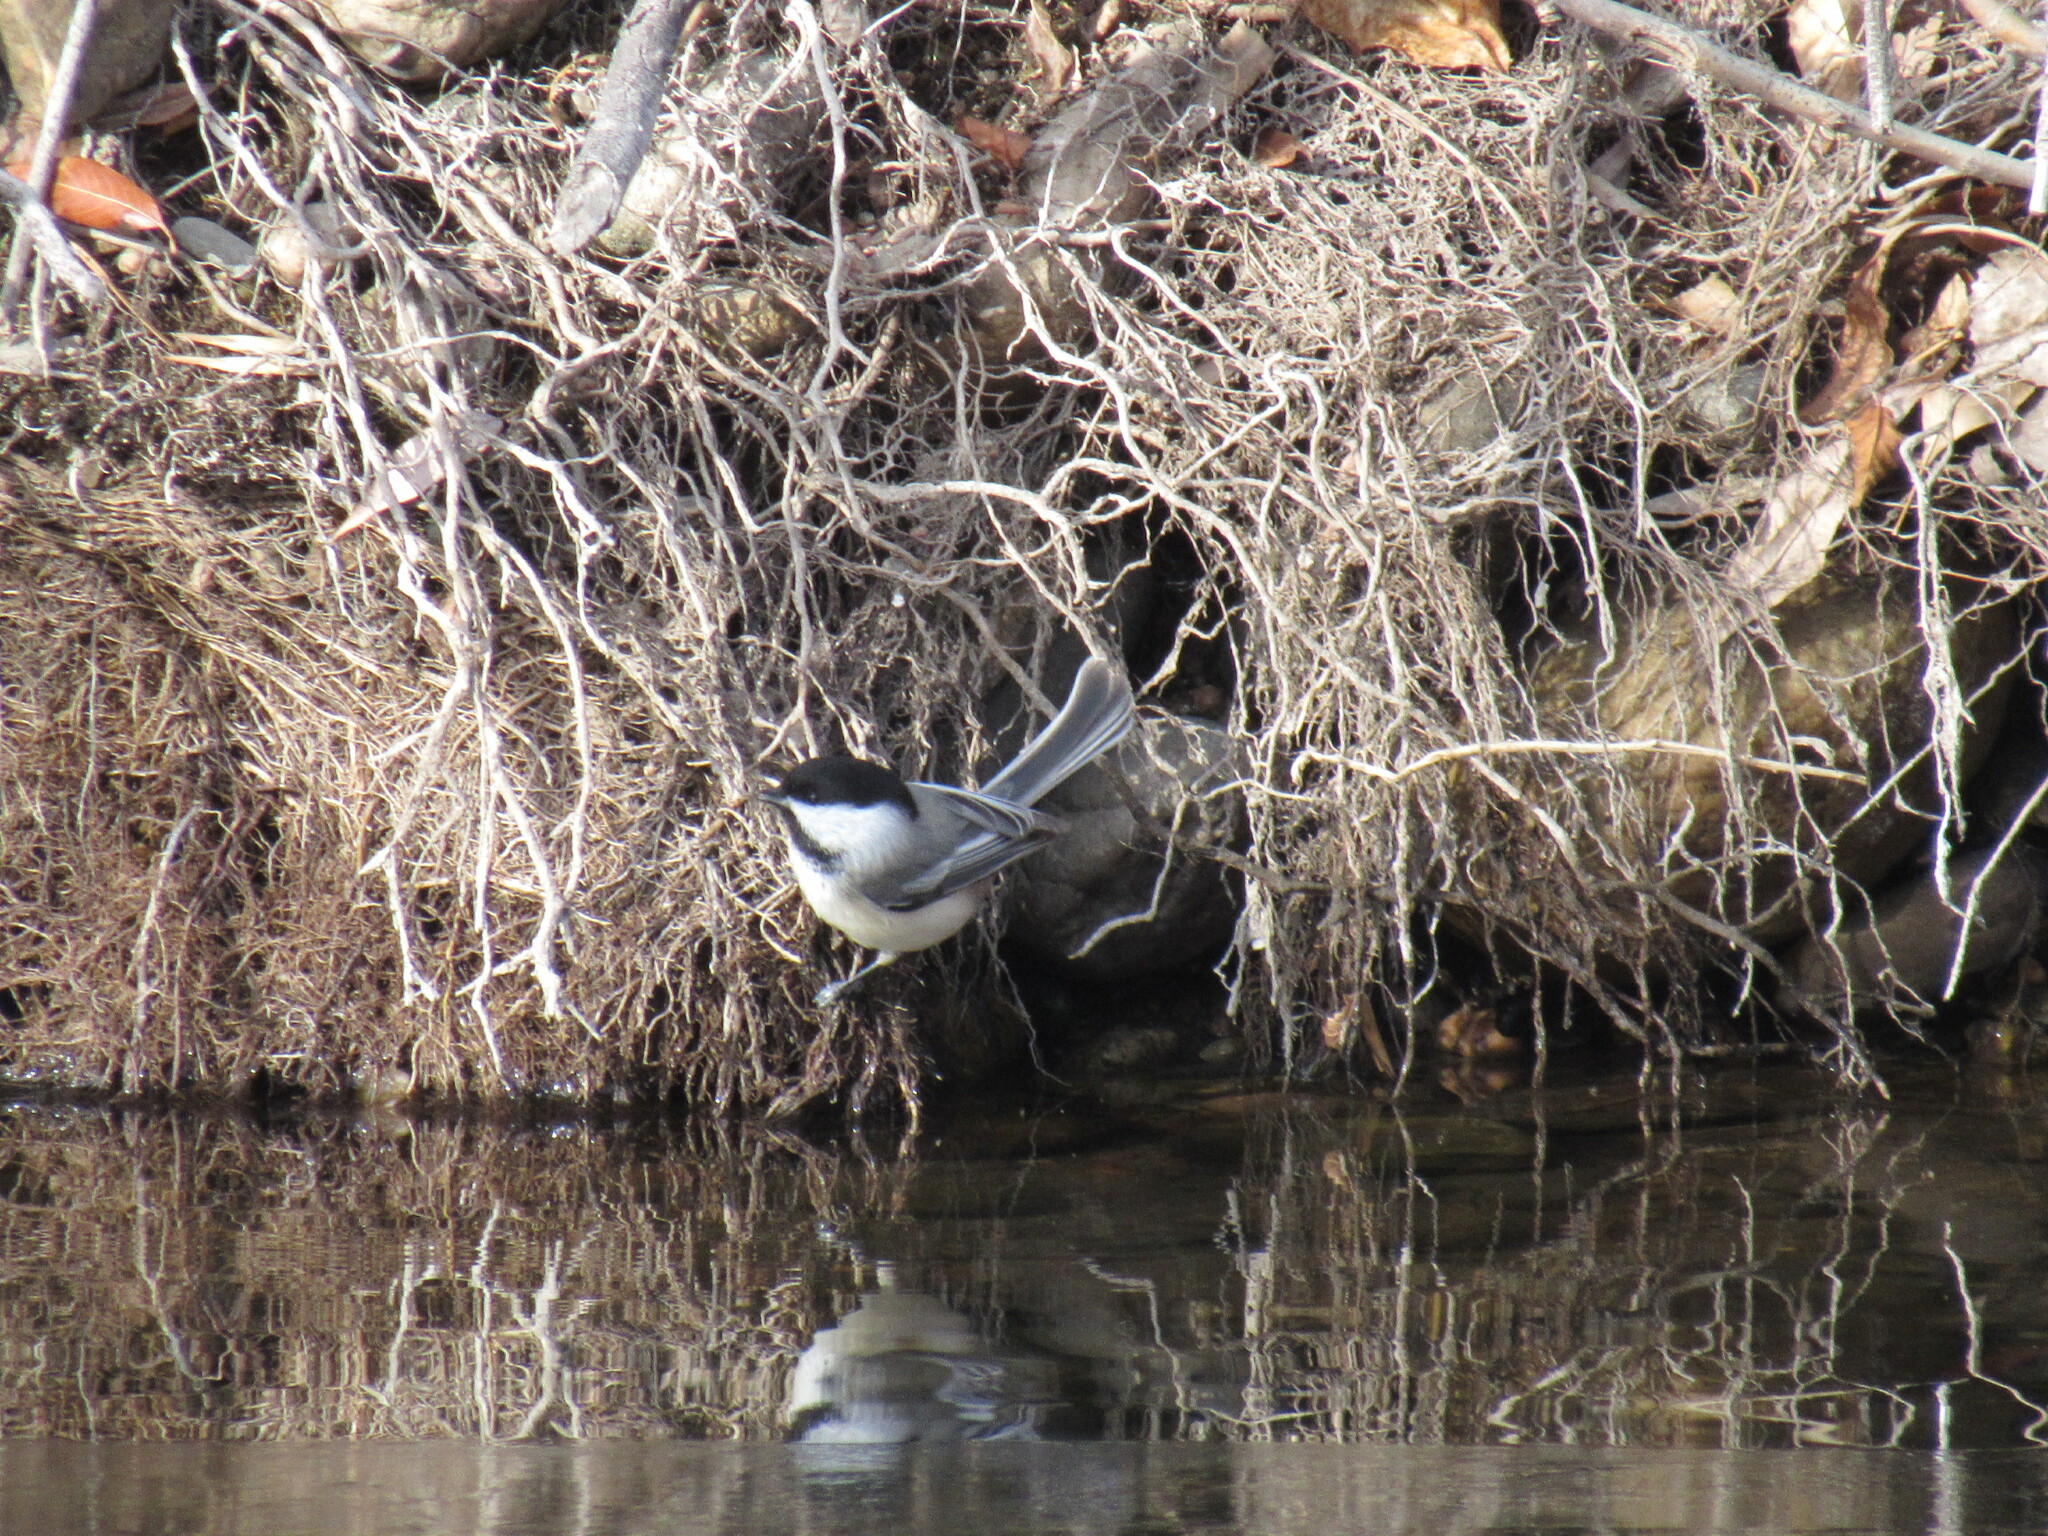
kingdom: Animalia
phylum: Chordata
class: Aves
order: Passeriformes
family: Paridae
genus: Poecile
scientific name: Poecile atricapillus
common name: Black-capped chickadee
